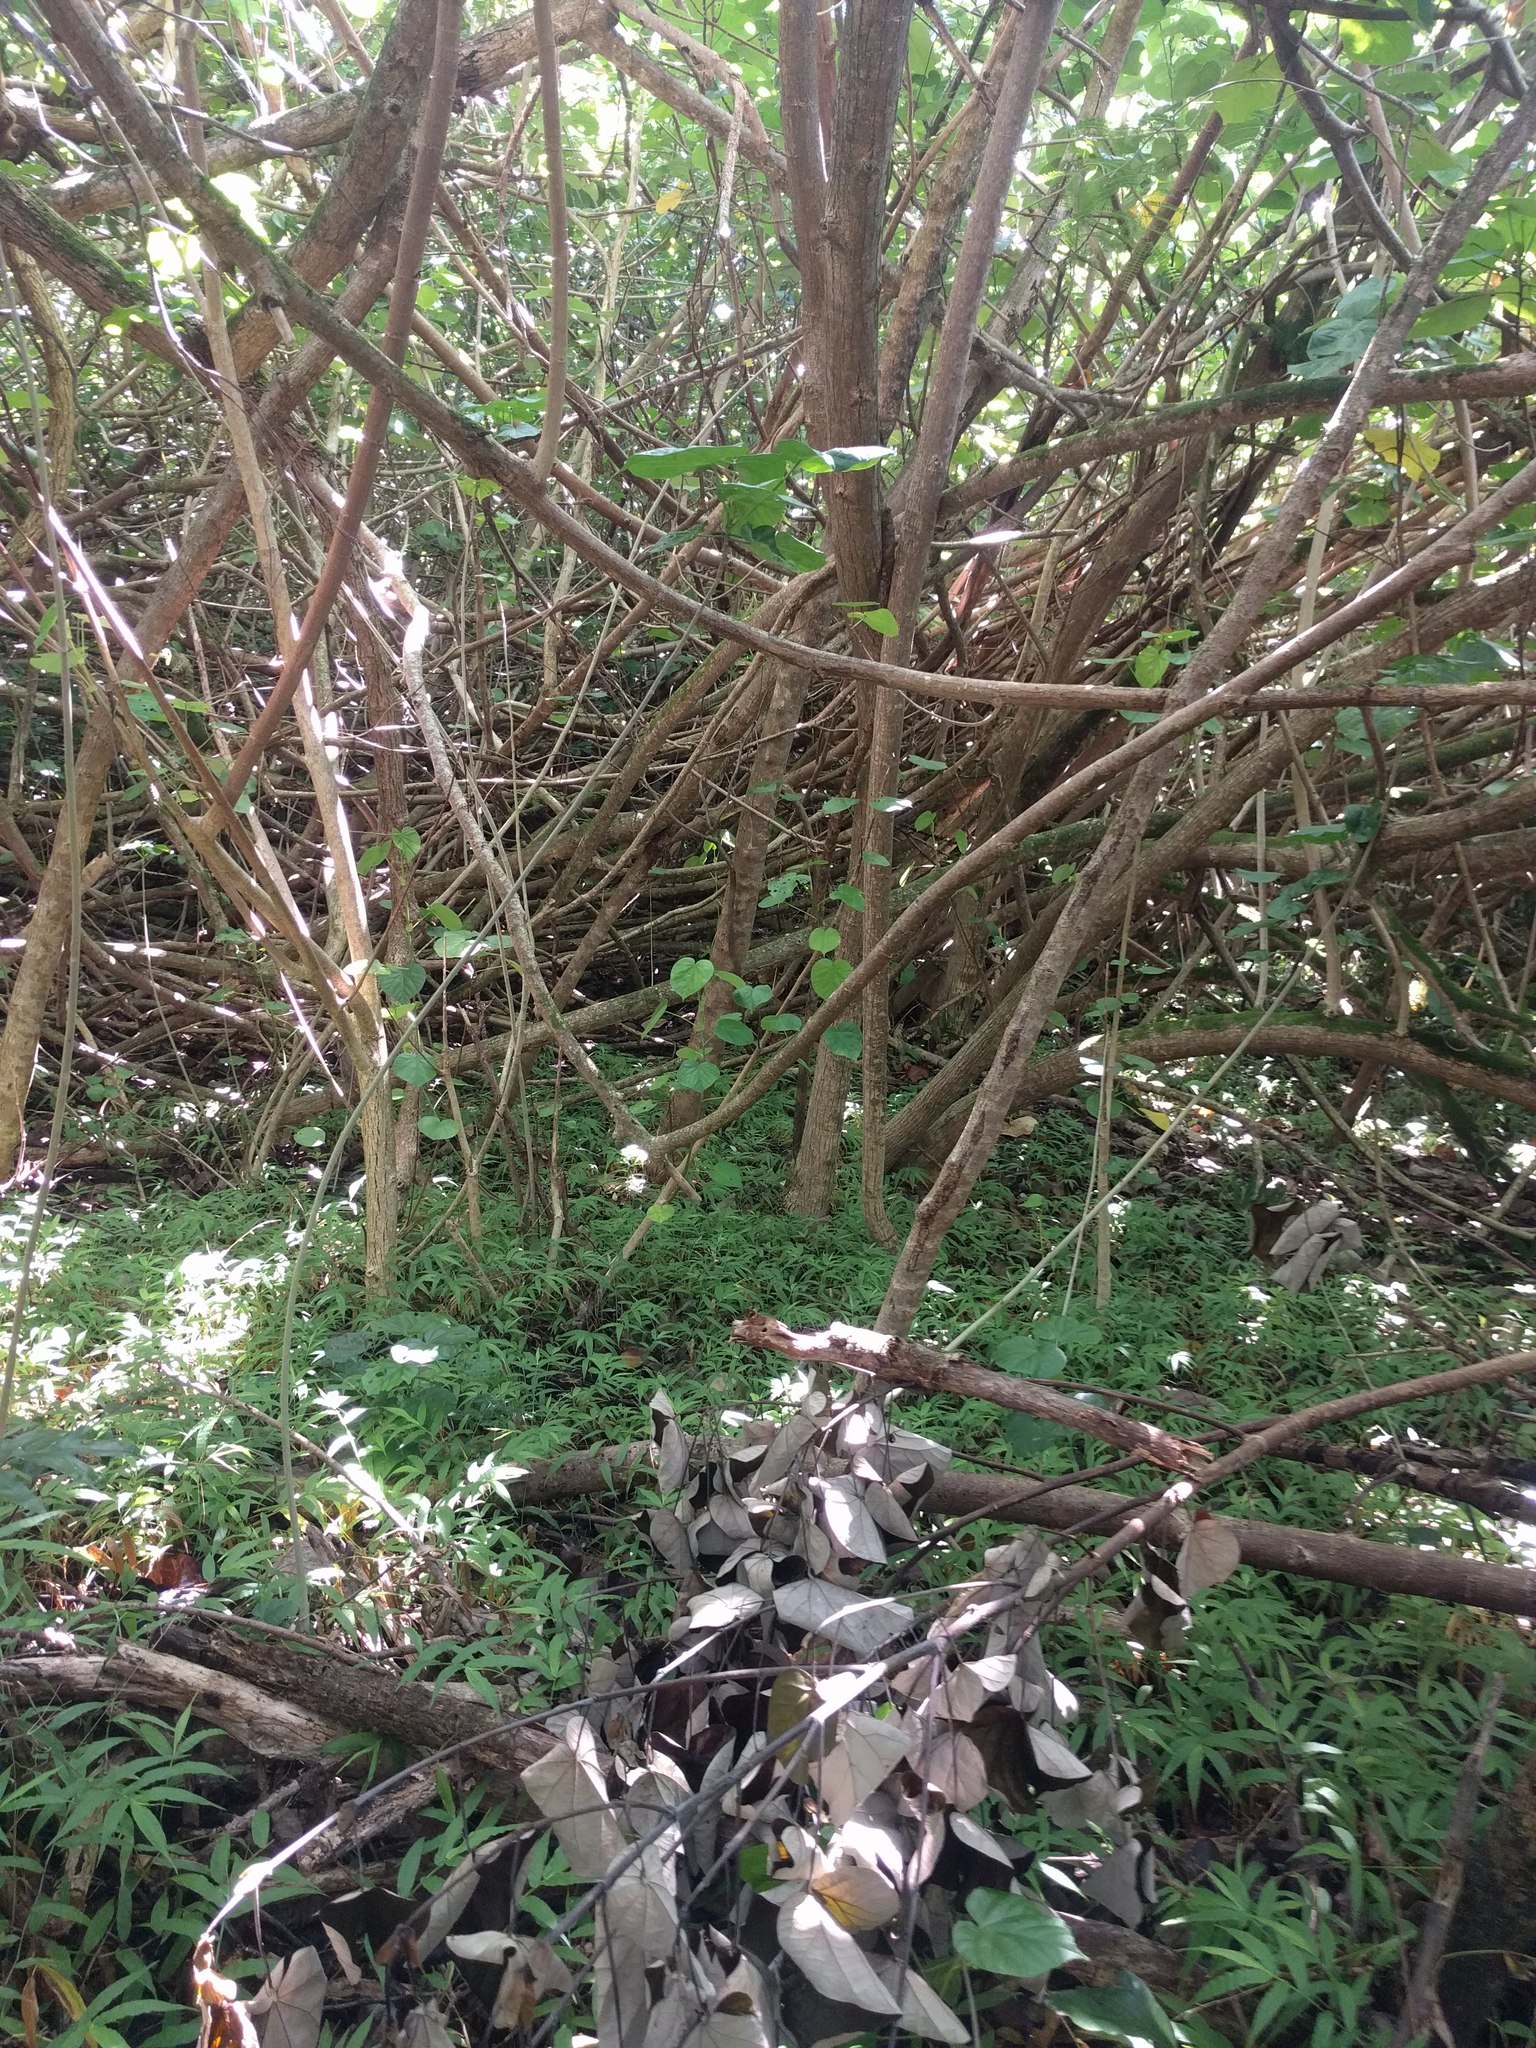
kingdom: Plantae
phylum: Tracheophyta
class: Magnoliopsida
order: Malvales
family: Malvaceae
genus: Talipariti
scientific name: Talipariti tiliaceum
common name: Sea hibiscus
